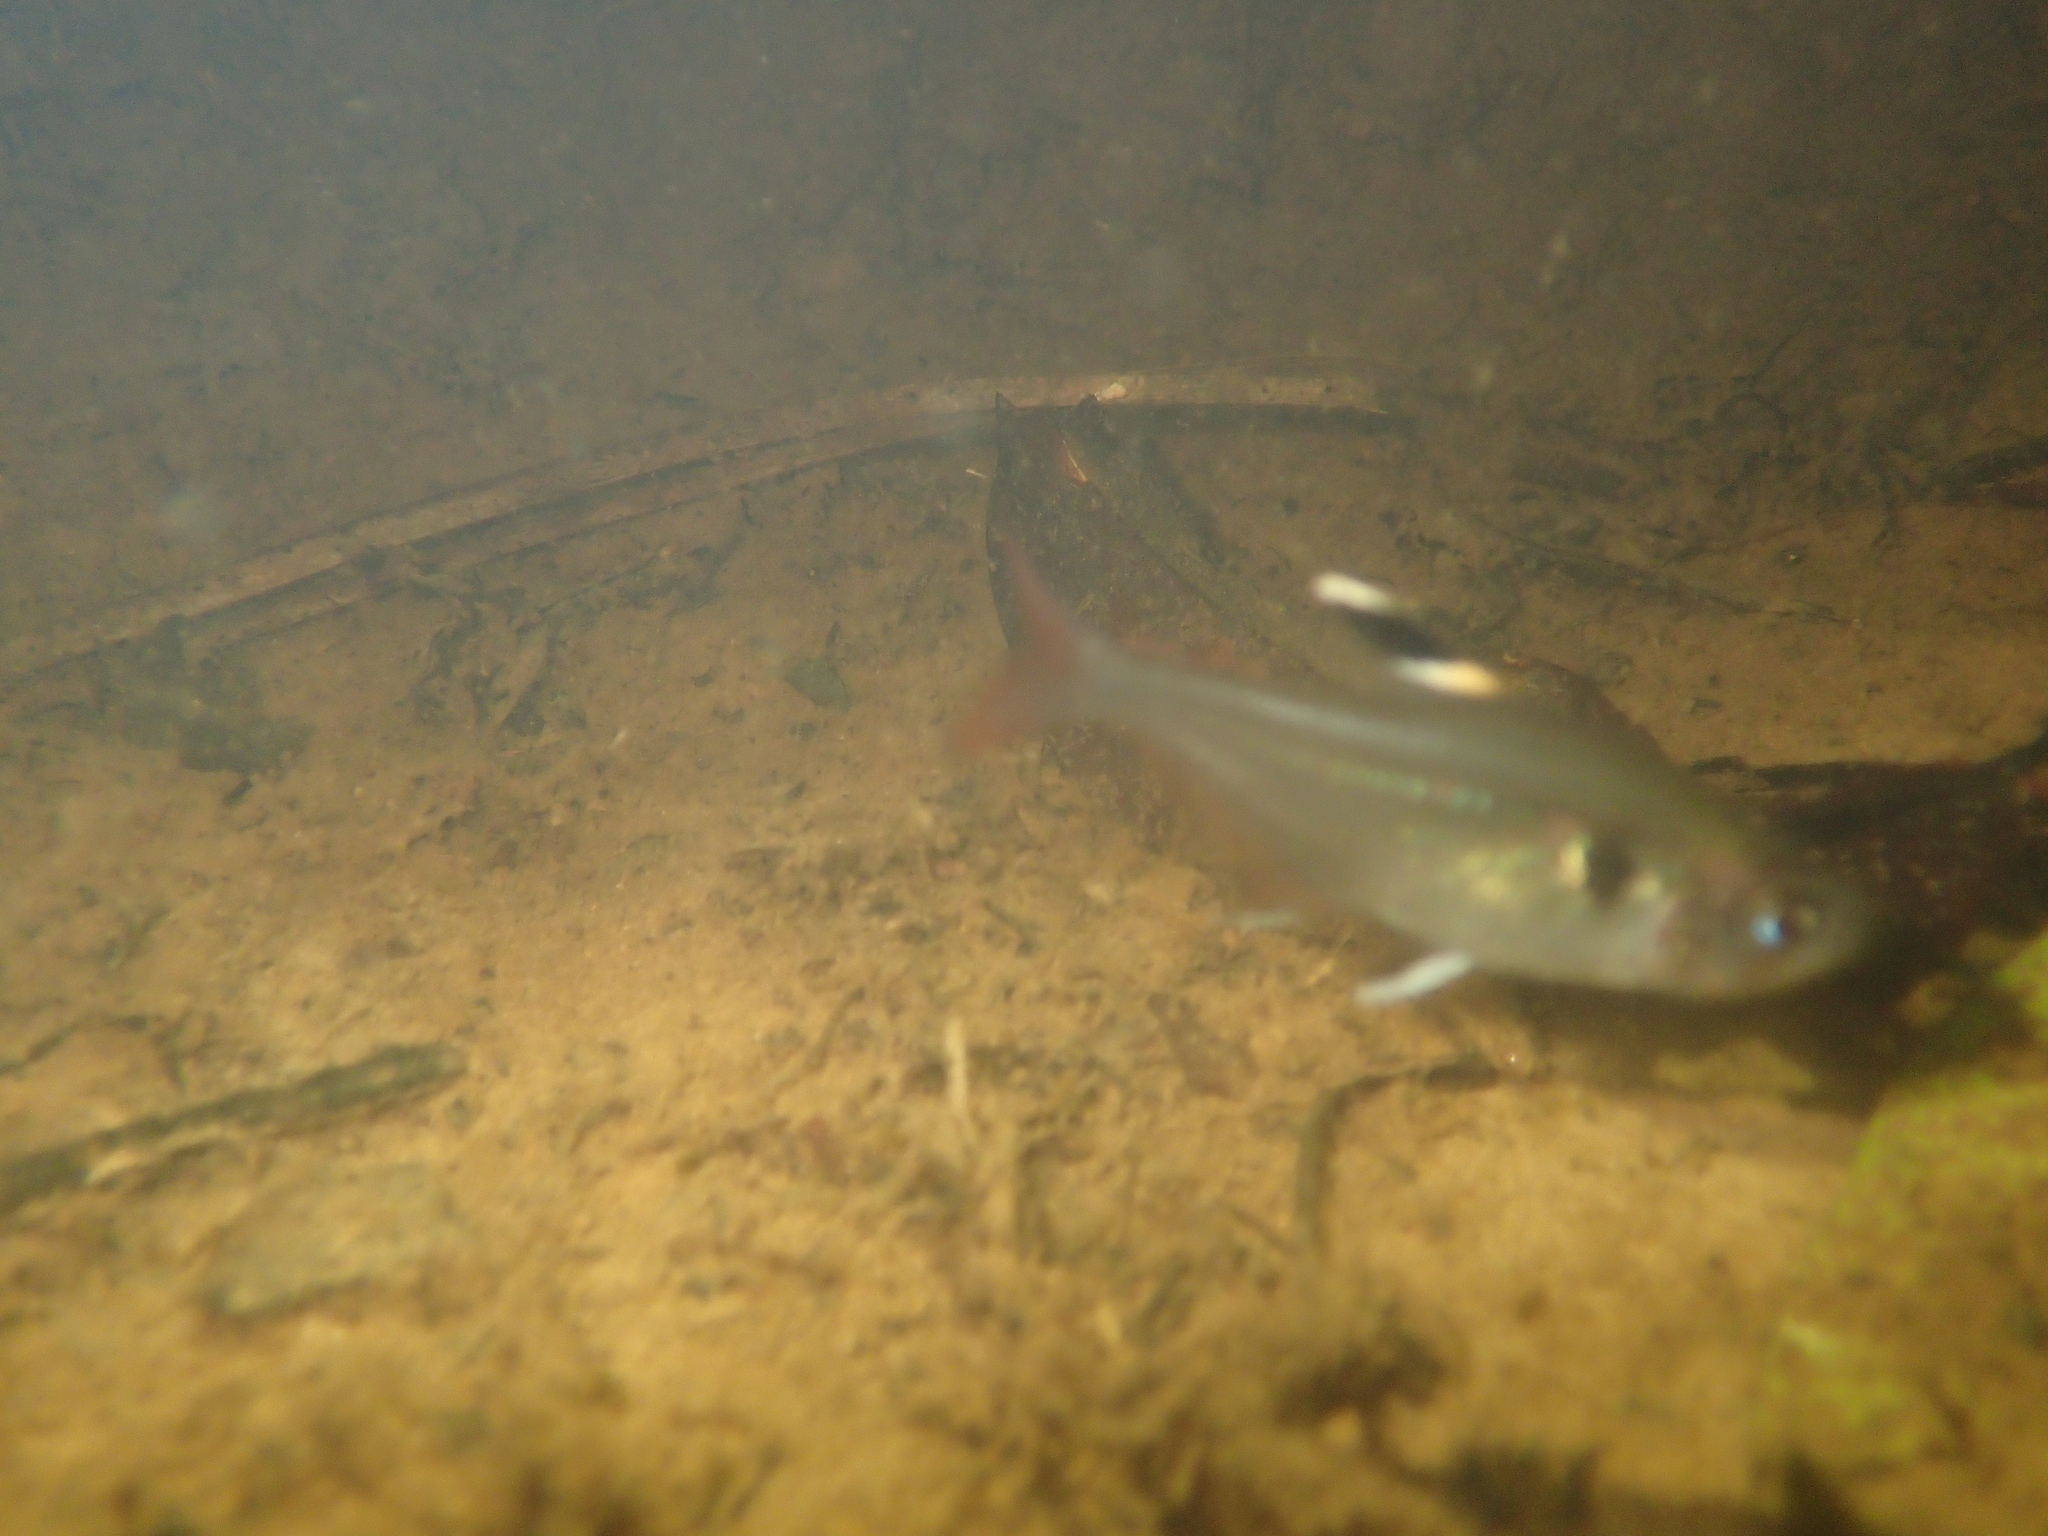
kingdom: Animalia
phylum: Chordata
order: Characiformes
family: Characidae
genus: Hyphessobrycon
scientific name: Hyphessobrycon copelandi
